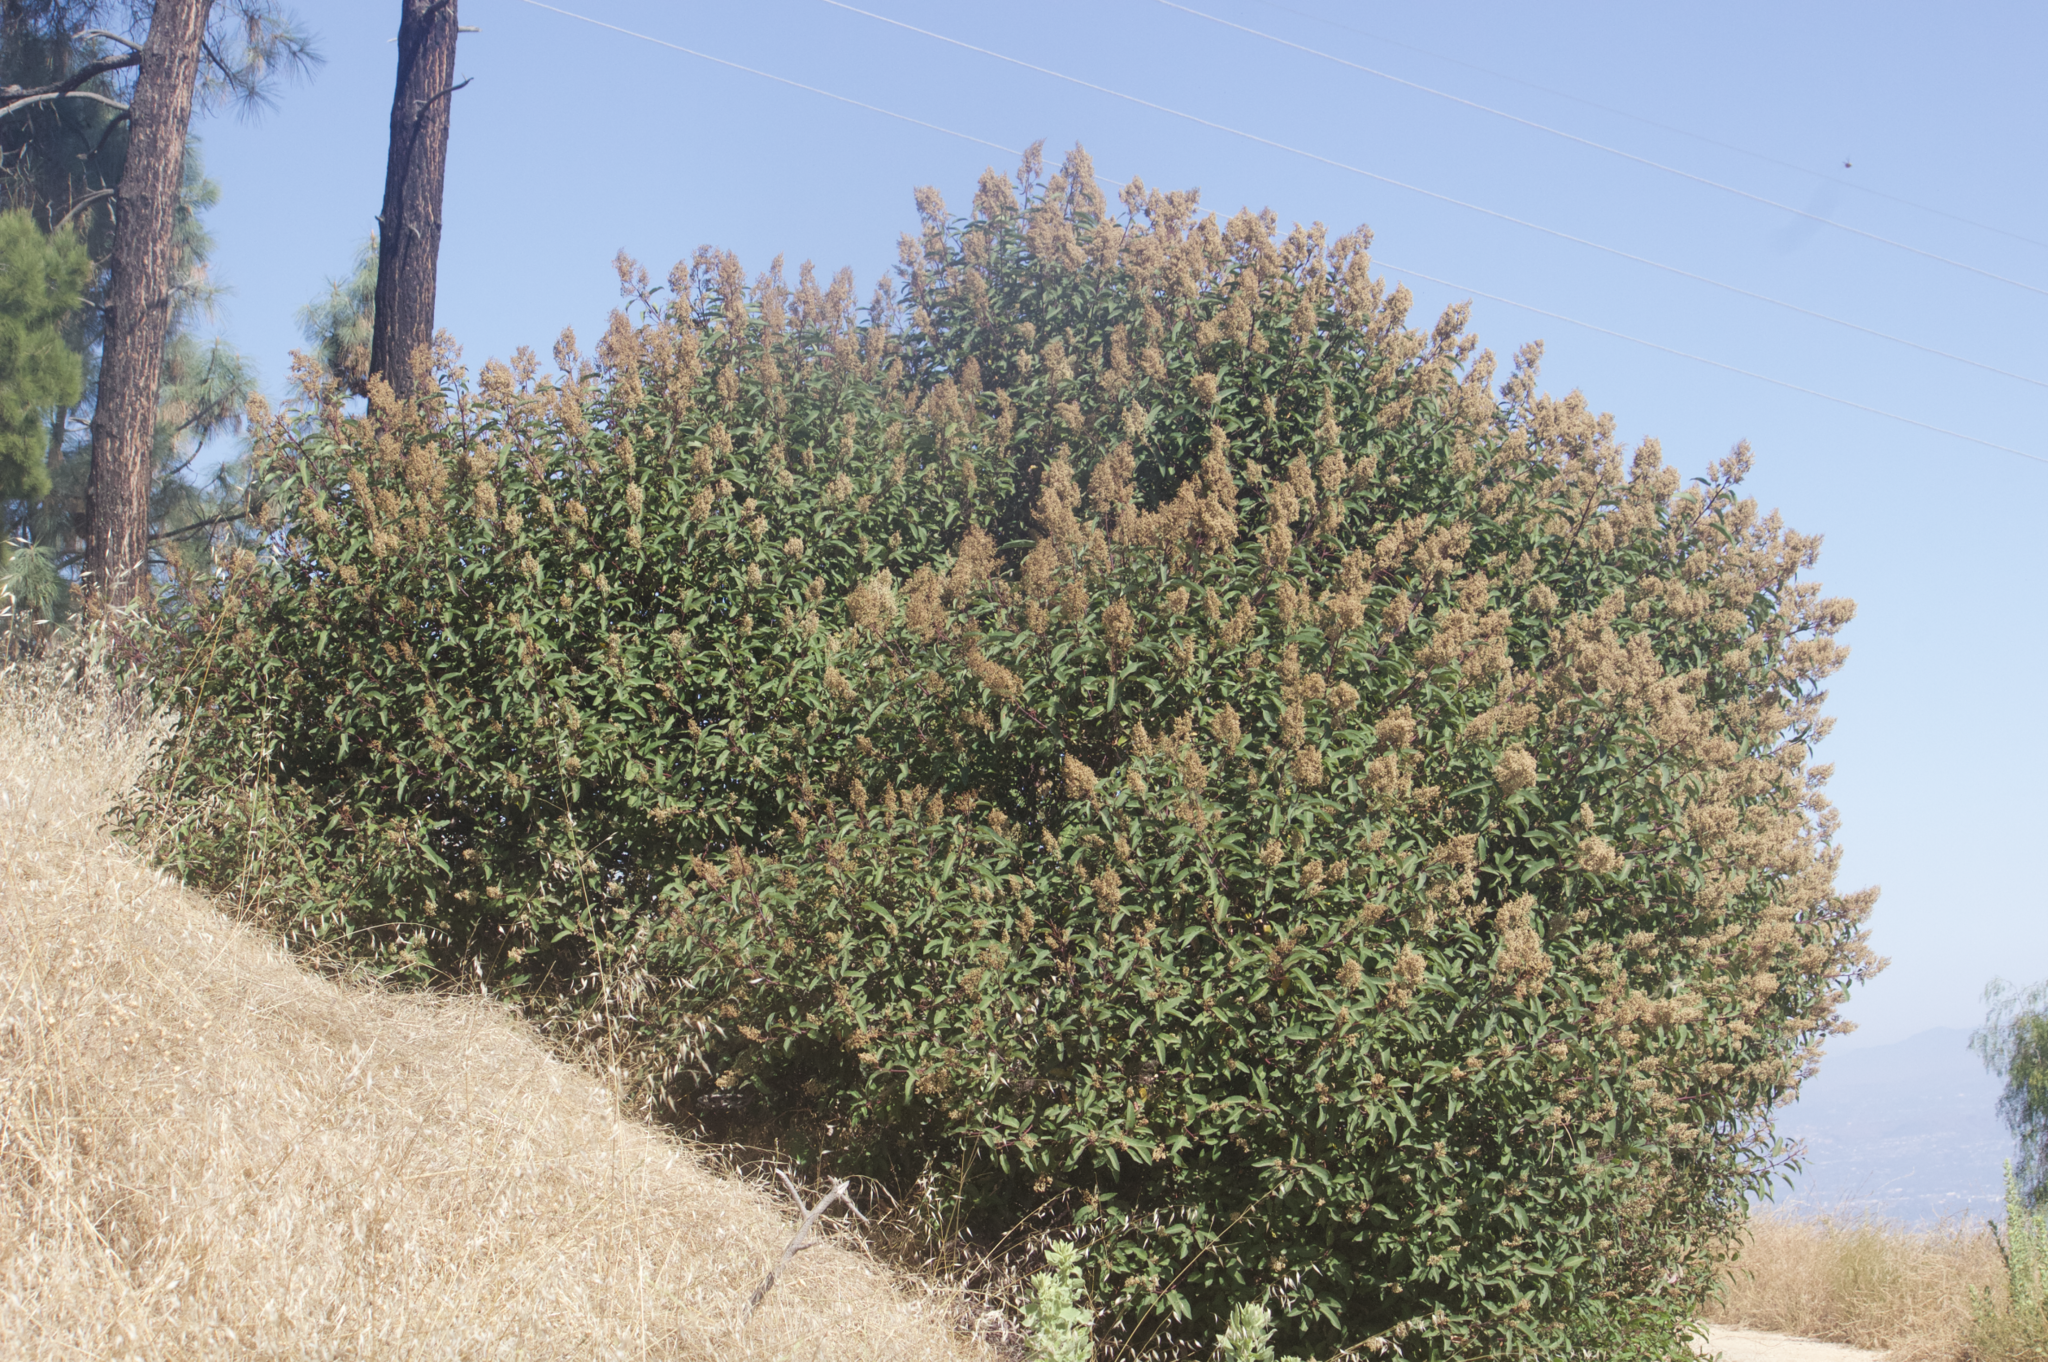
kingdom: Plantae
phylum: Tracheophyta
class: Magnoliopsida
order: Sapindales
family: Anacardiaceae
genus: Malosma
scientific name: Malosma laurina
